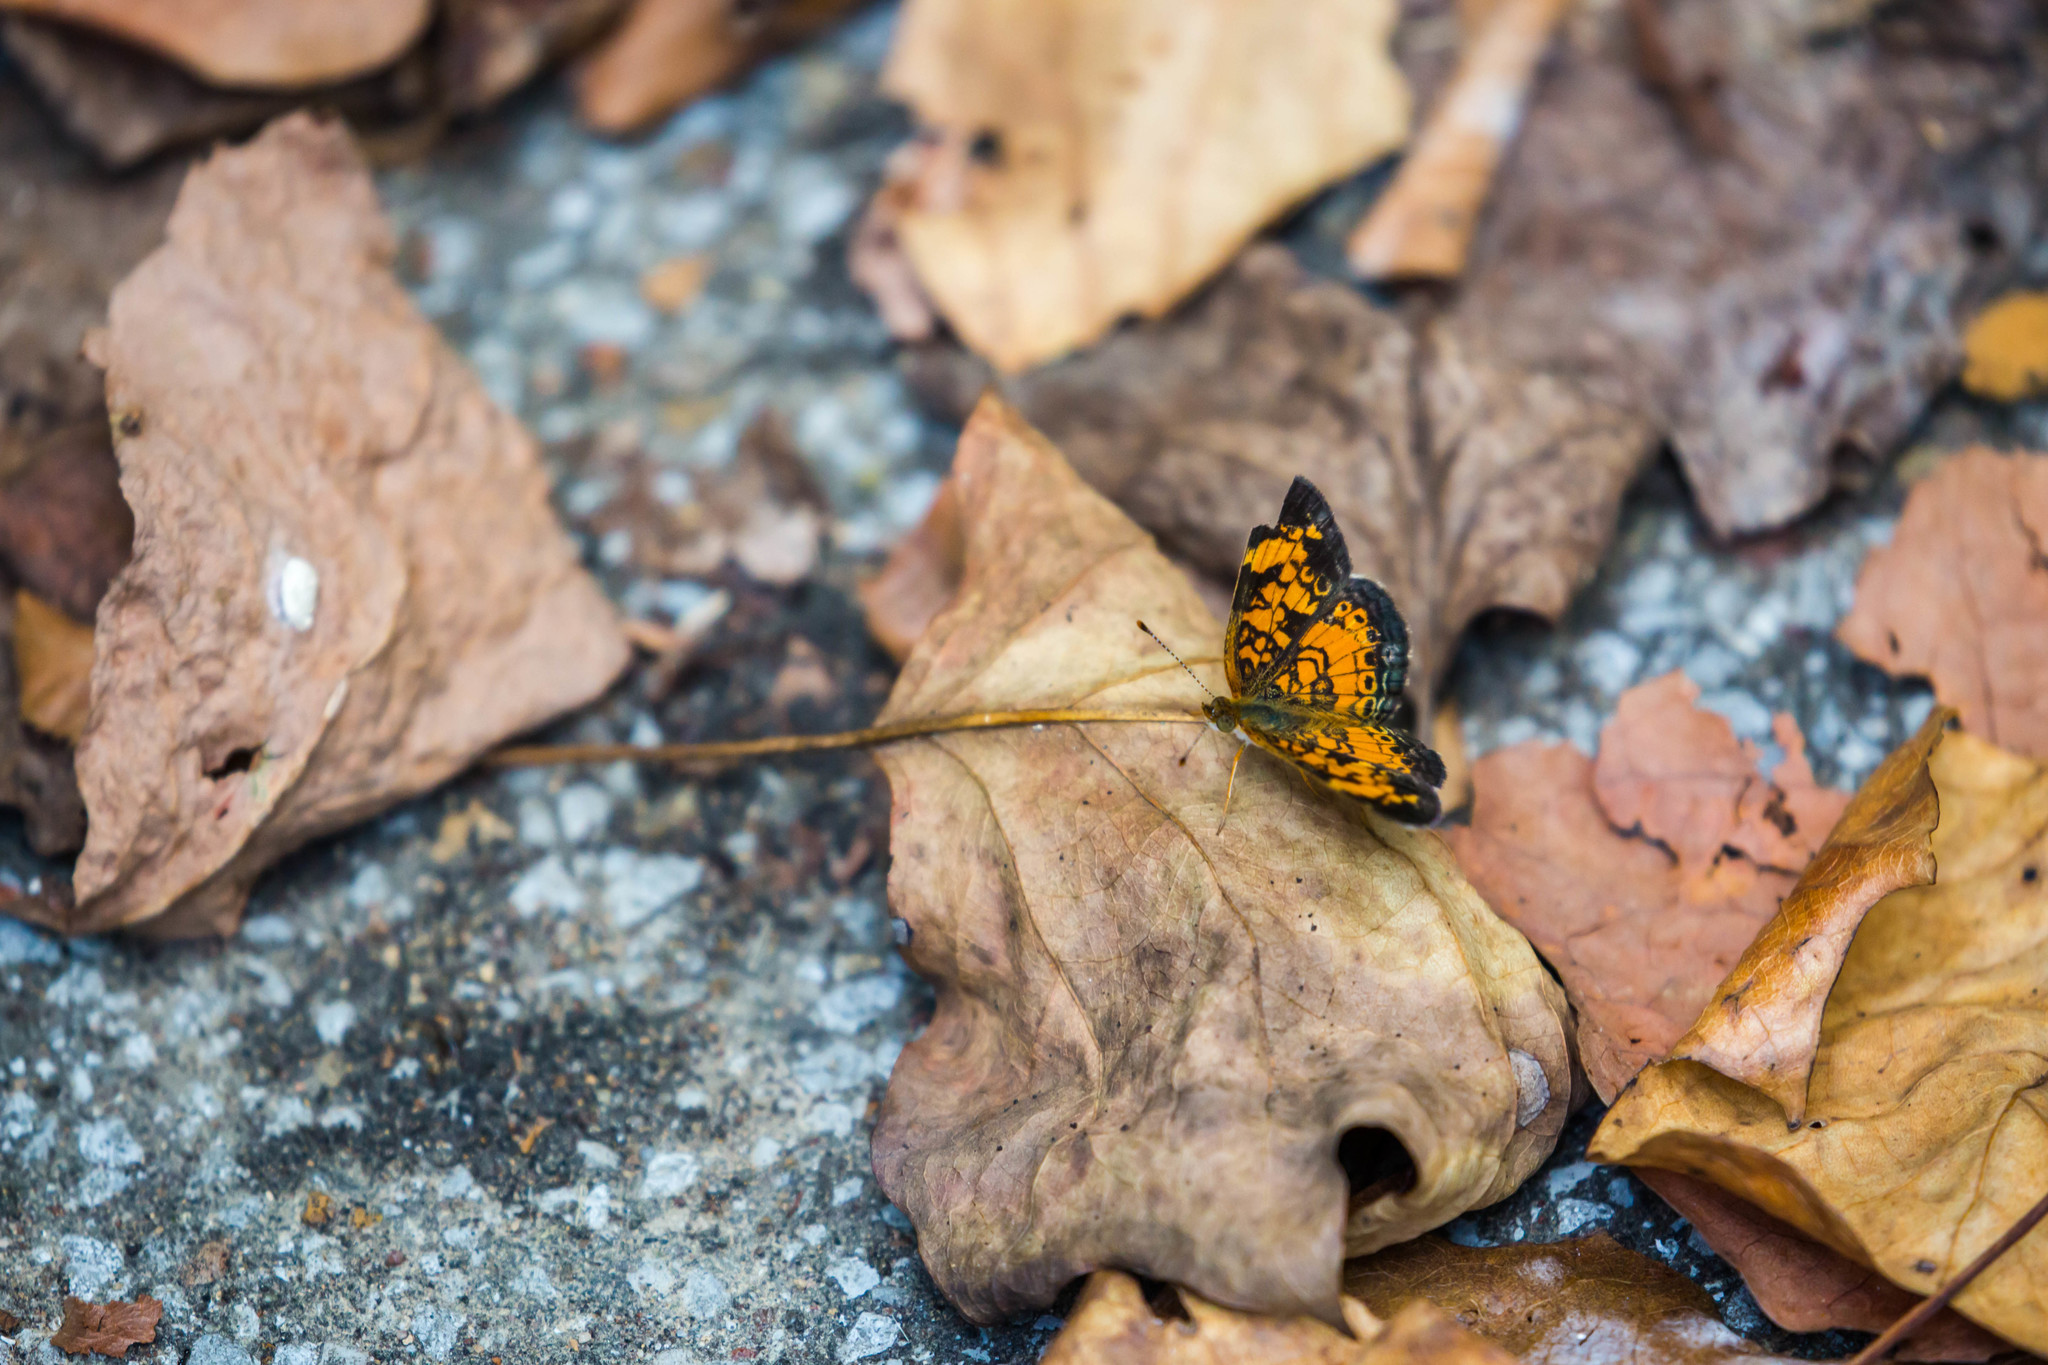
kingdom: Animalia
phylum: Arthropoda
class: Insecta
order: Lepidoptera
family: Nymphalidae
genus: Phyciodes
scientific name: Phyciodes tharos
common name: Pearl crescent
